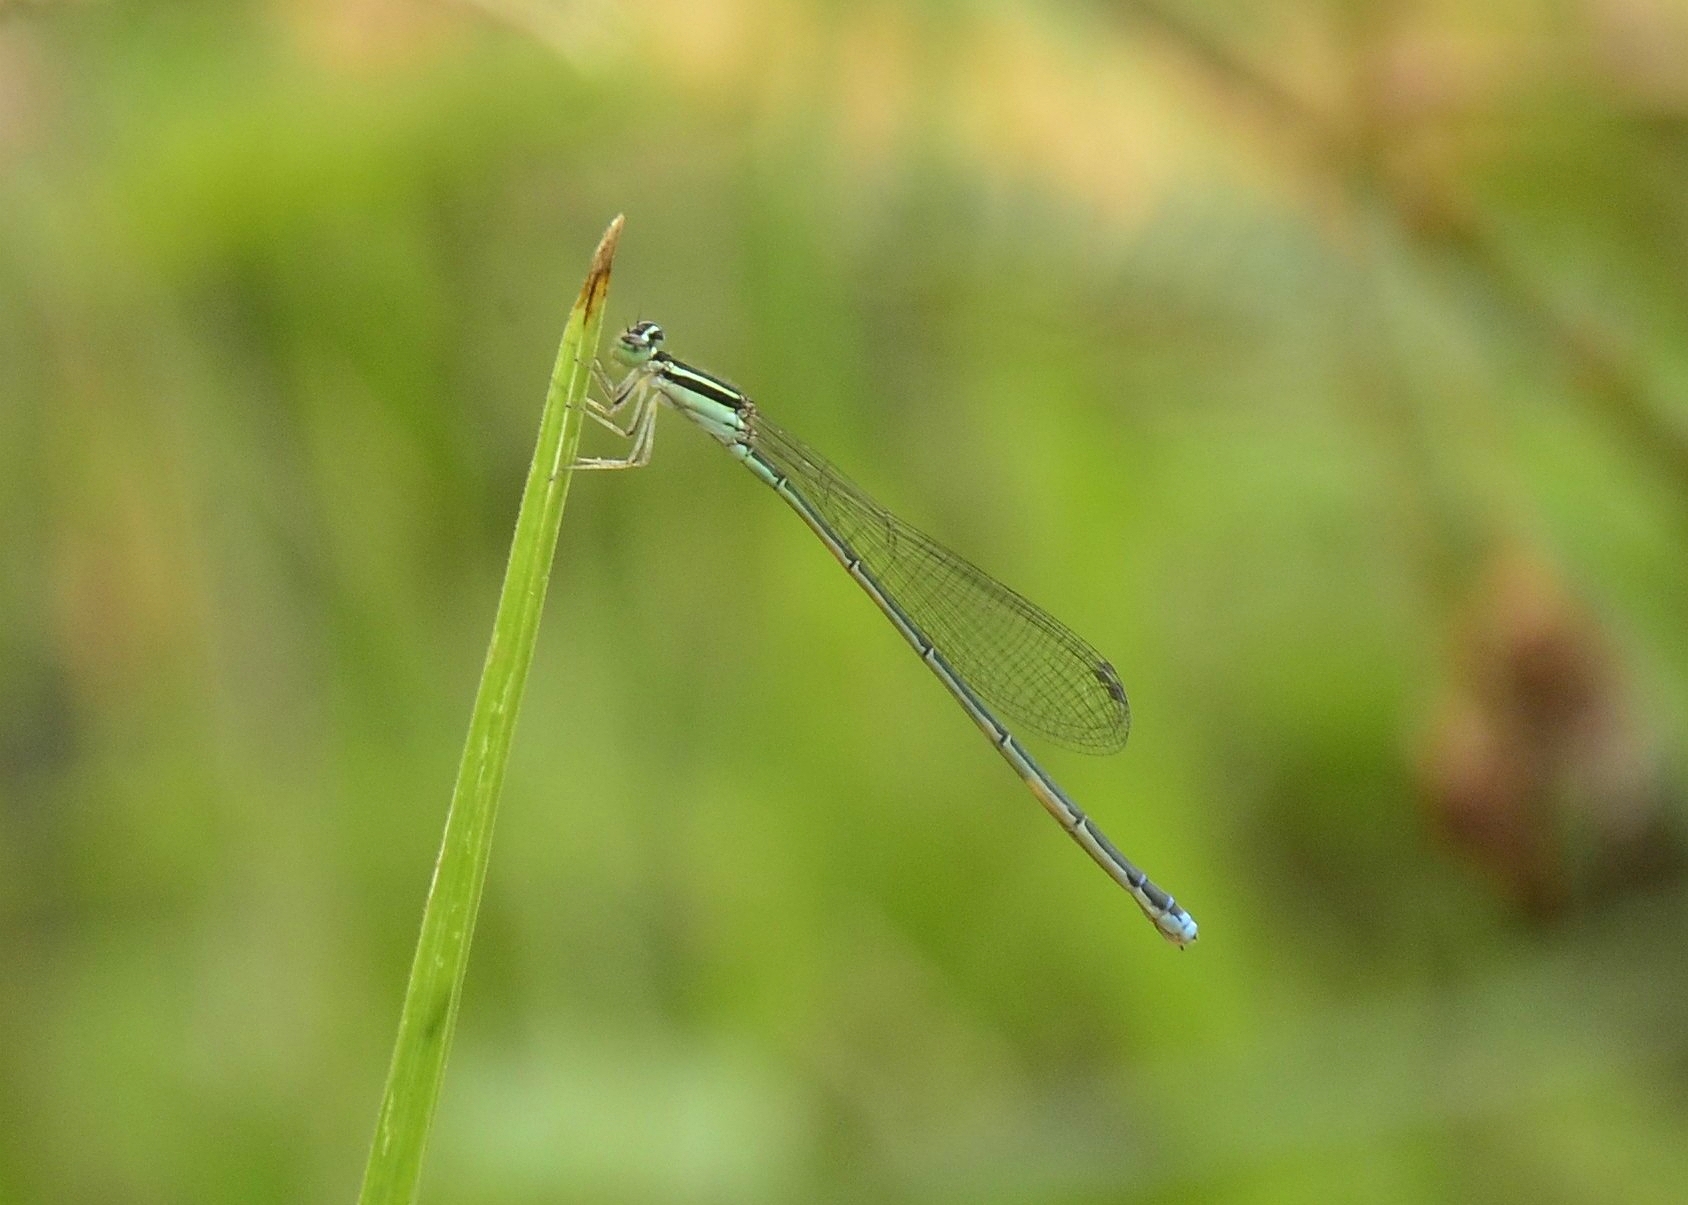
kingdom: Animalia
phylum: Arthropoda
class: Insecta
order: Odonata
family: Coenagrionidae
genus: Aciagrion
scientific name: Aciagrion occidentale
